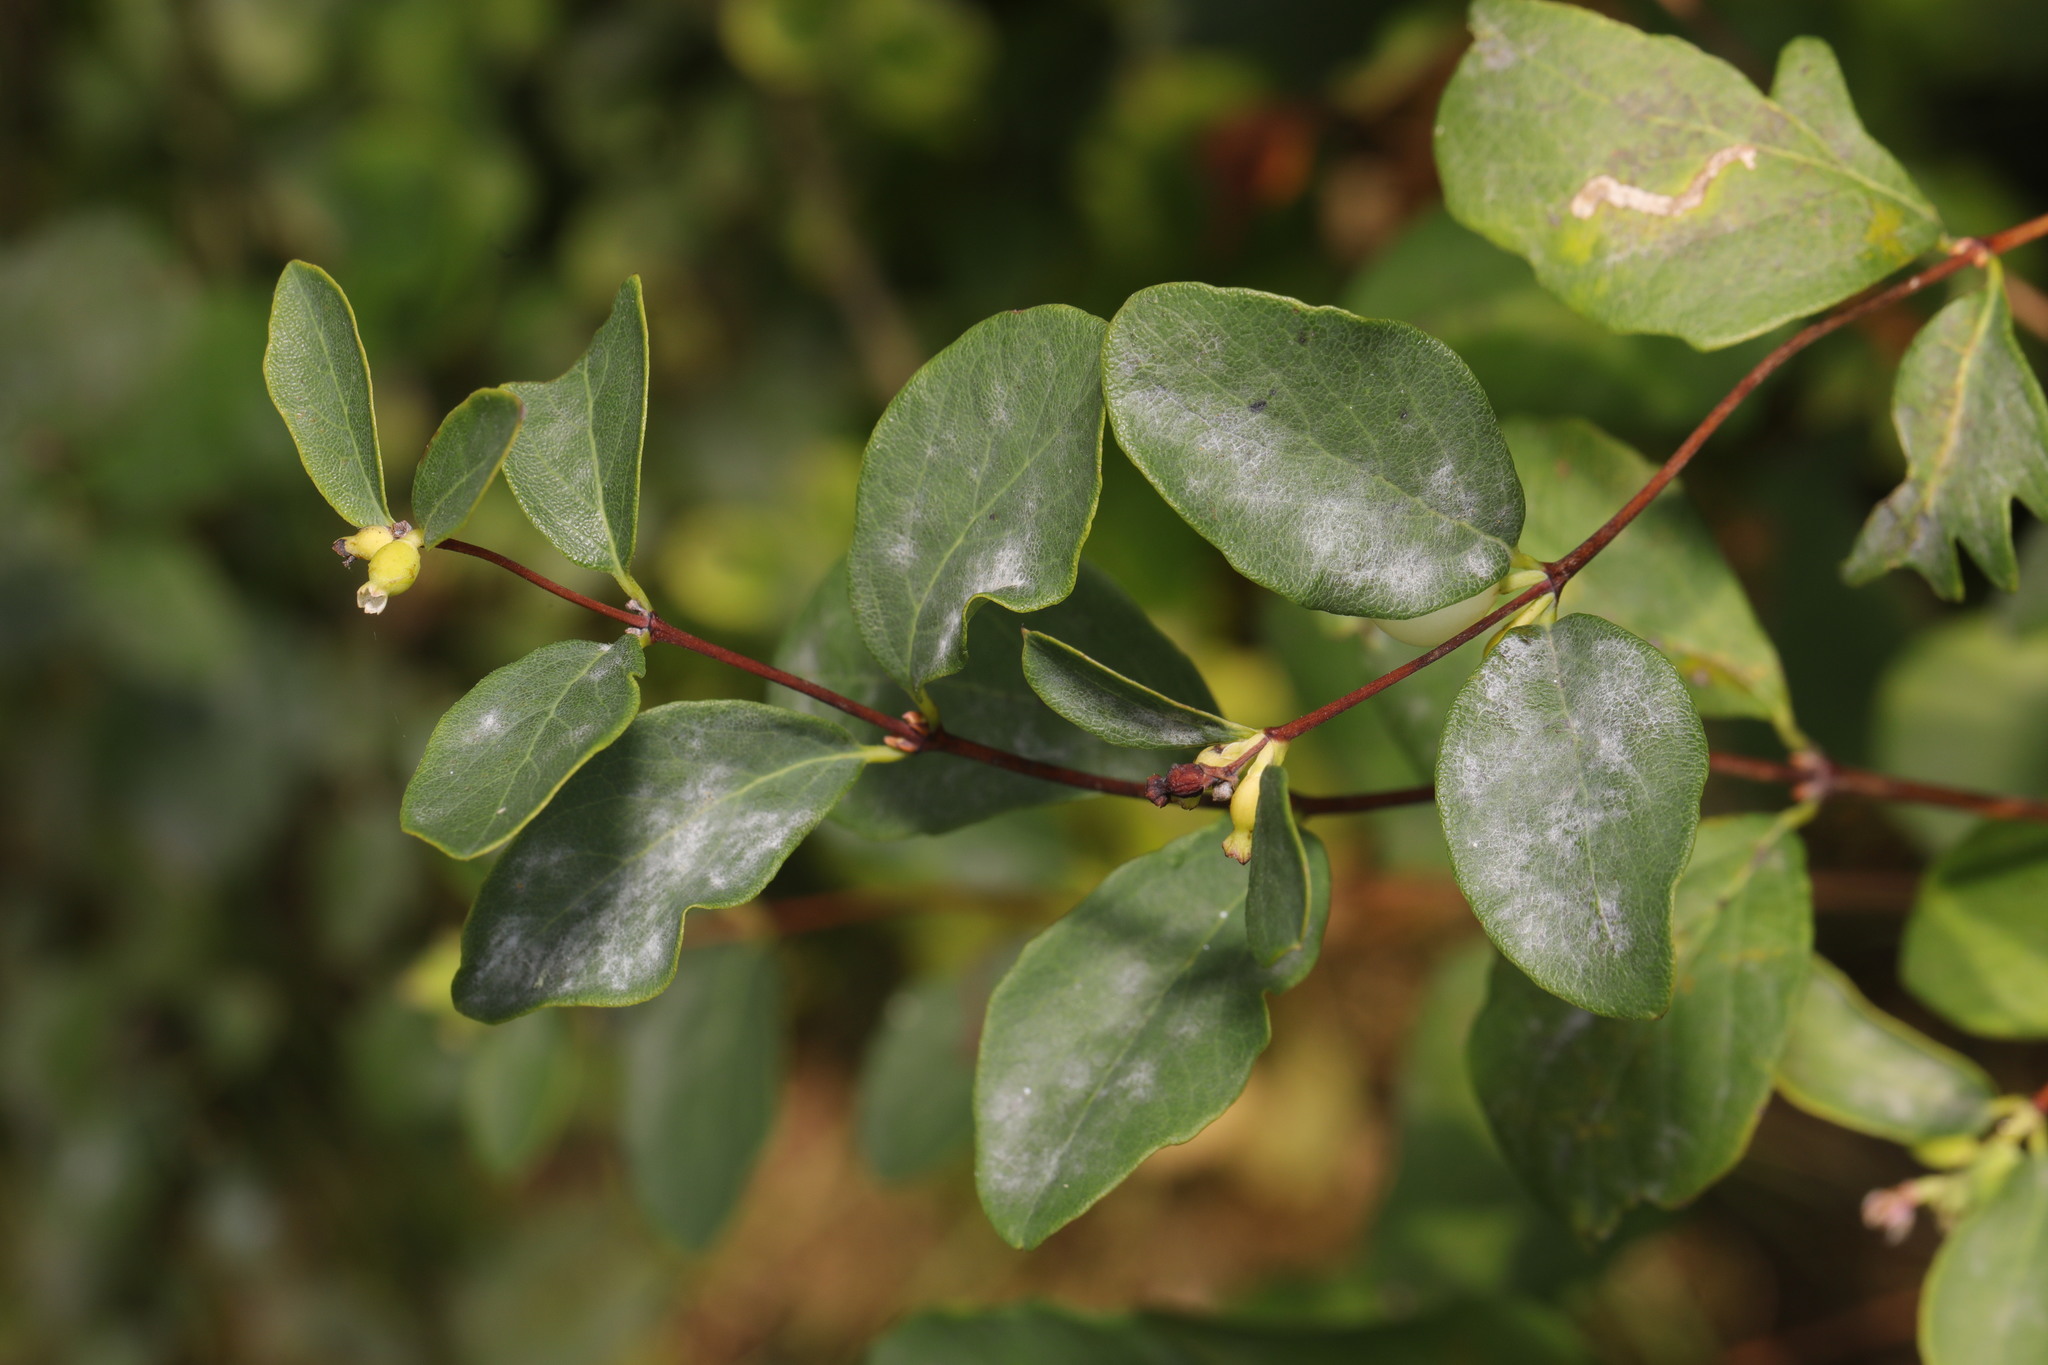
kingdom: Fungi
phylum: Ascomycota
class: Leotiomycetes
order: Helotiales
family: Erysiphaceae
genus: Erysiphe
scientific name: Erysiphe symphoricarpi
